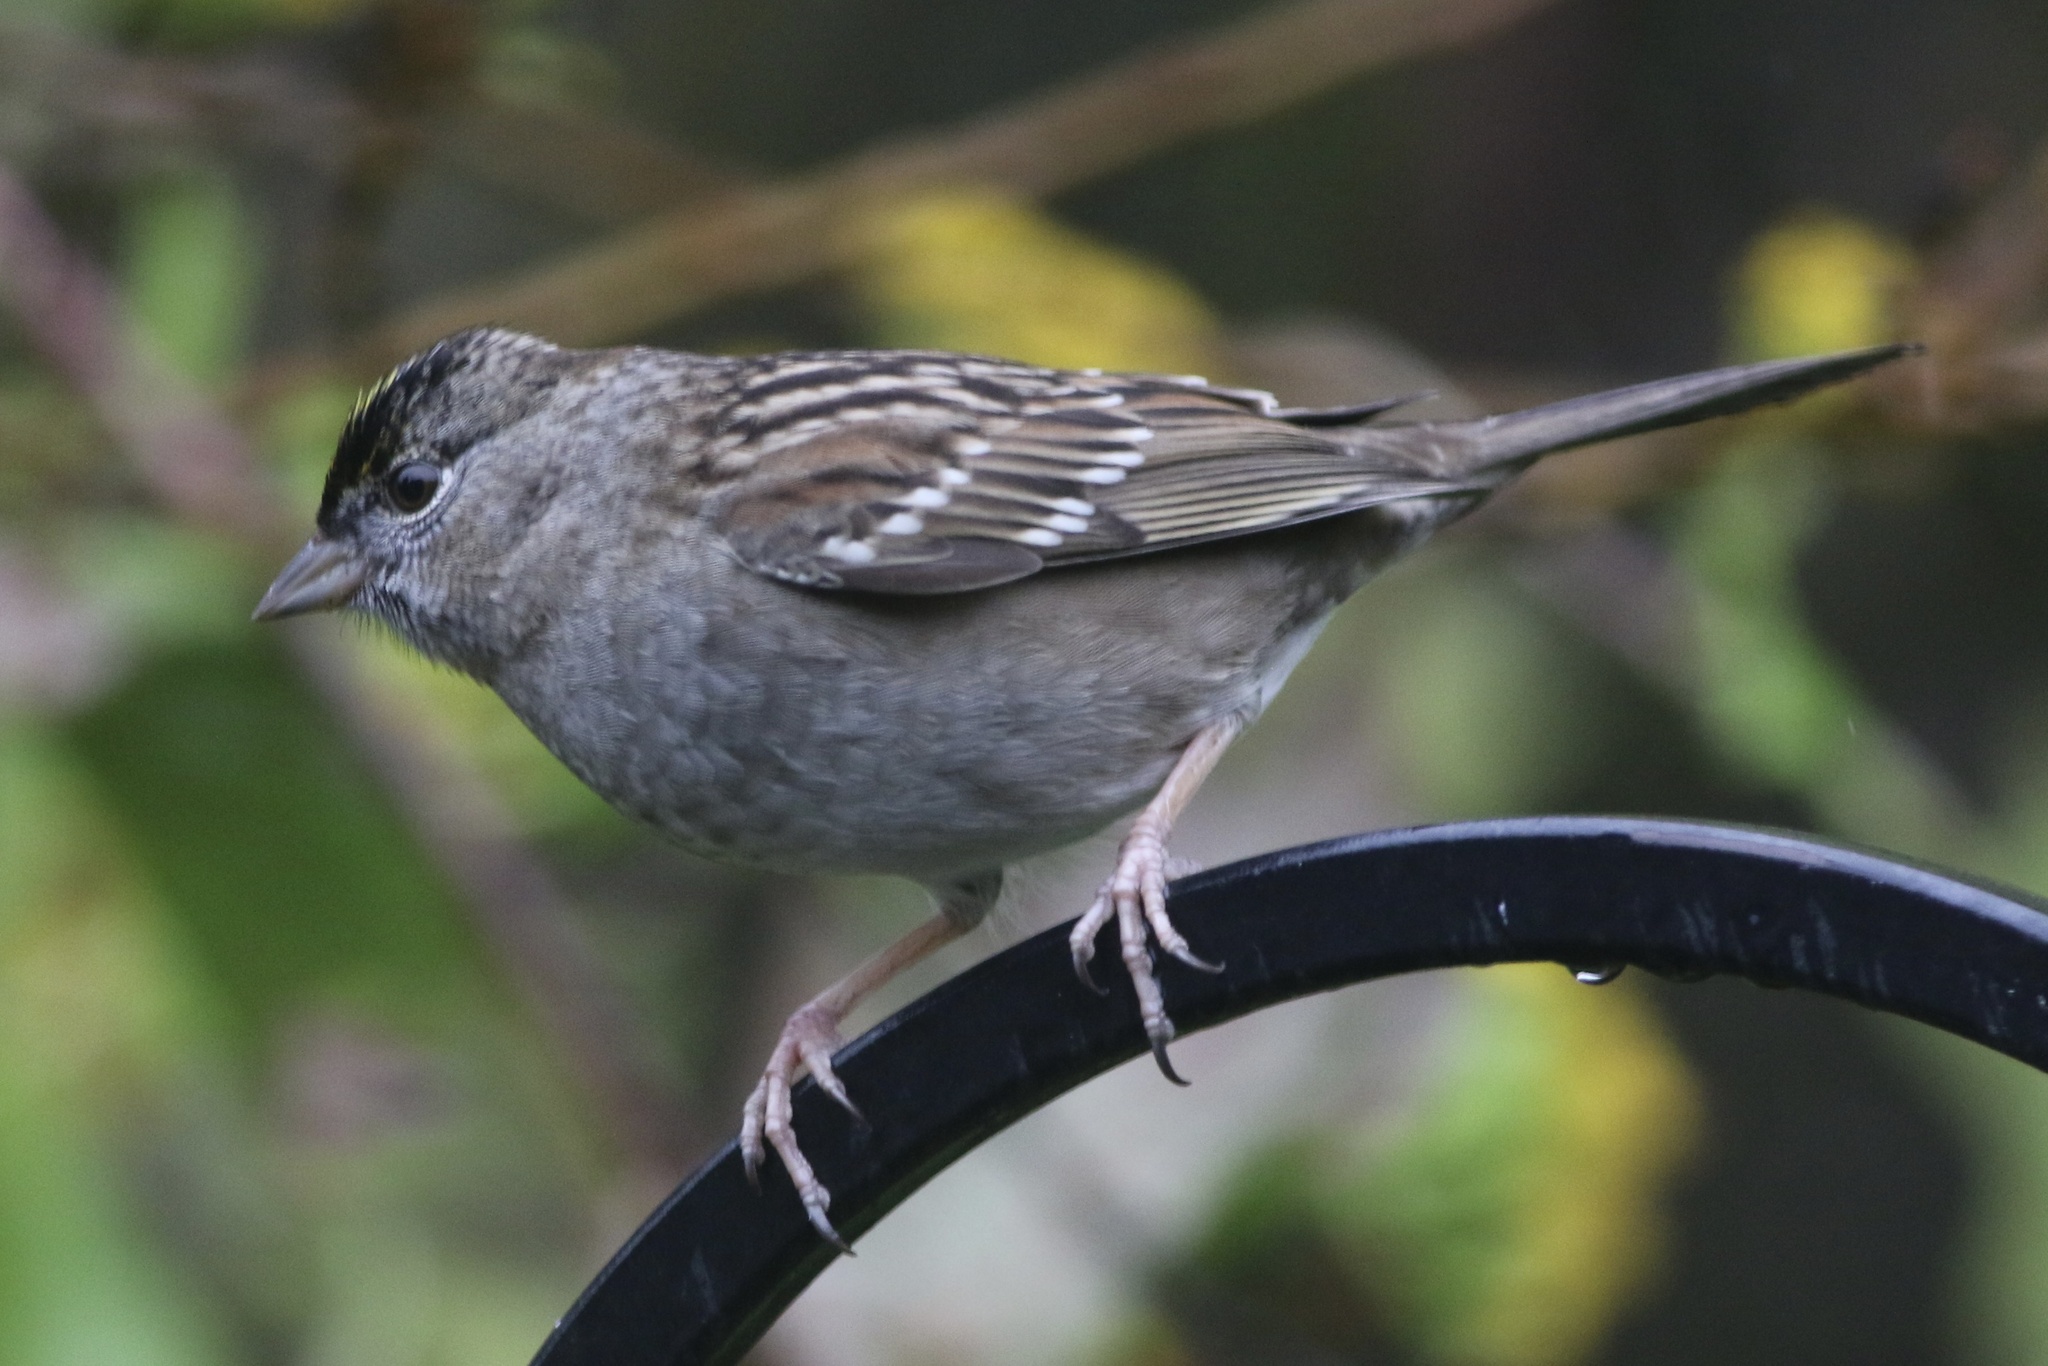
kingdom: Animalia
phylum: Chordata
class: Aves
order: Passeriformes
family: Passerellidae
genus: Zonotrichia
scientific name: Zonotrichia atricapilla
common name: Golden-crowned sparrow
